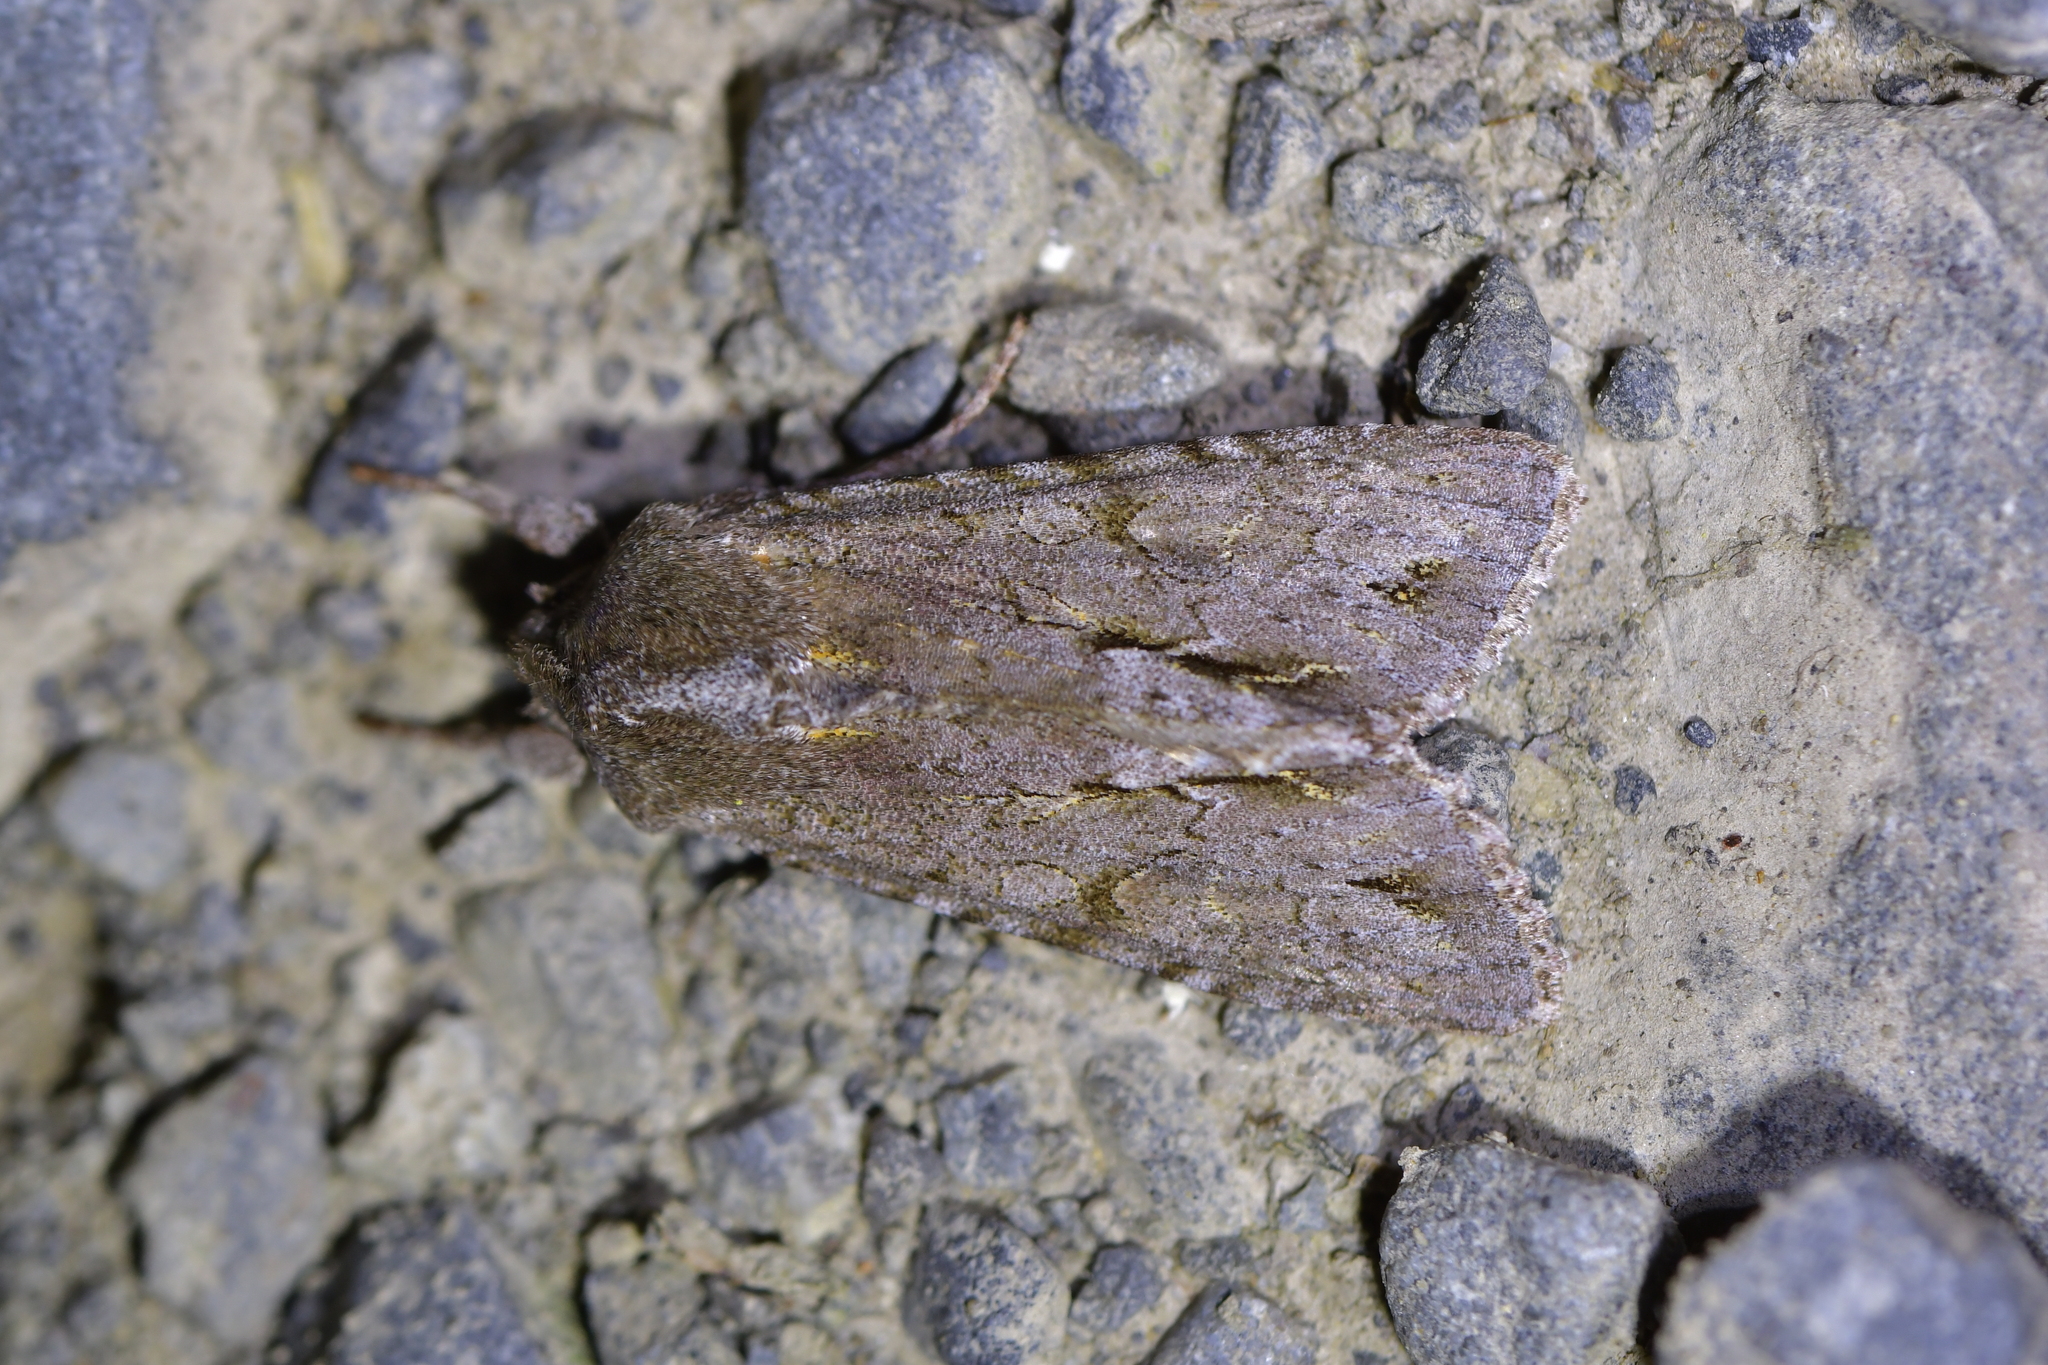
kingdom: Animalia
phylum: Arthropoda
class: Insecta
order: Lepidoptera
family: Noctuidae
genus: Ichneutica
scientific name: Ichneutica
